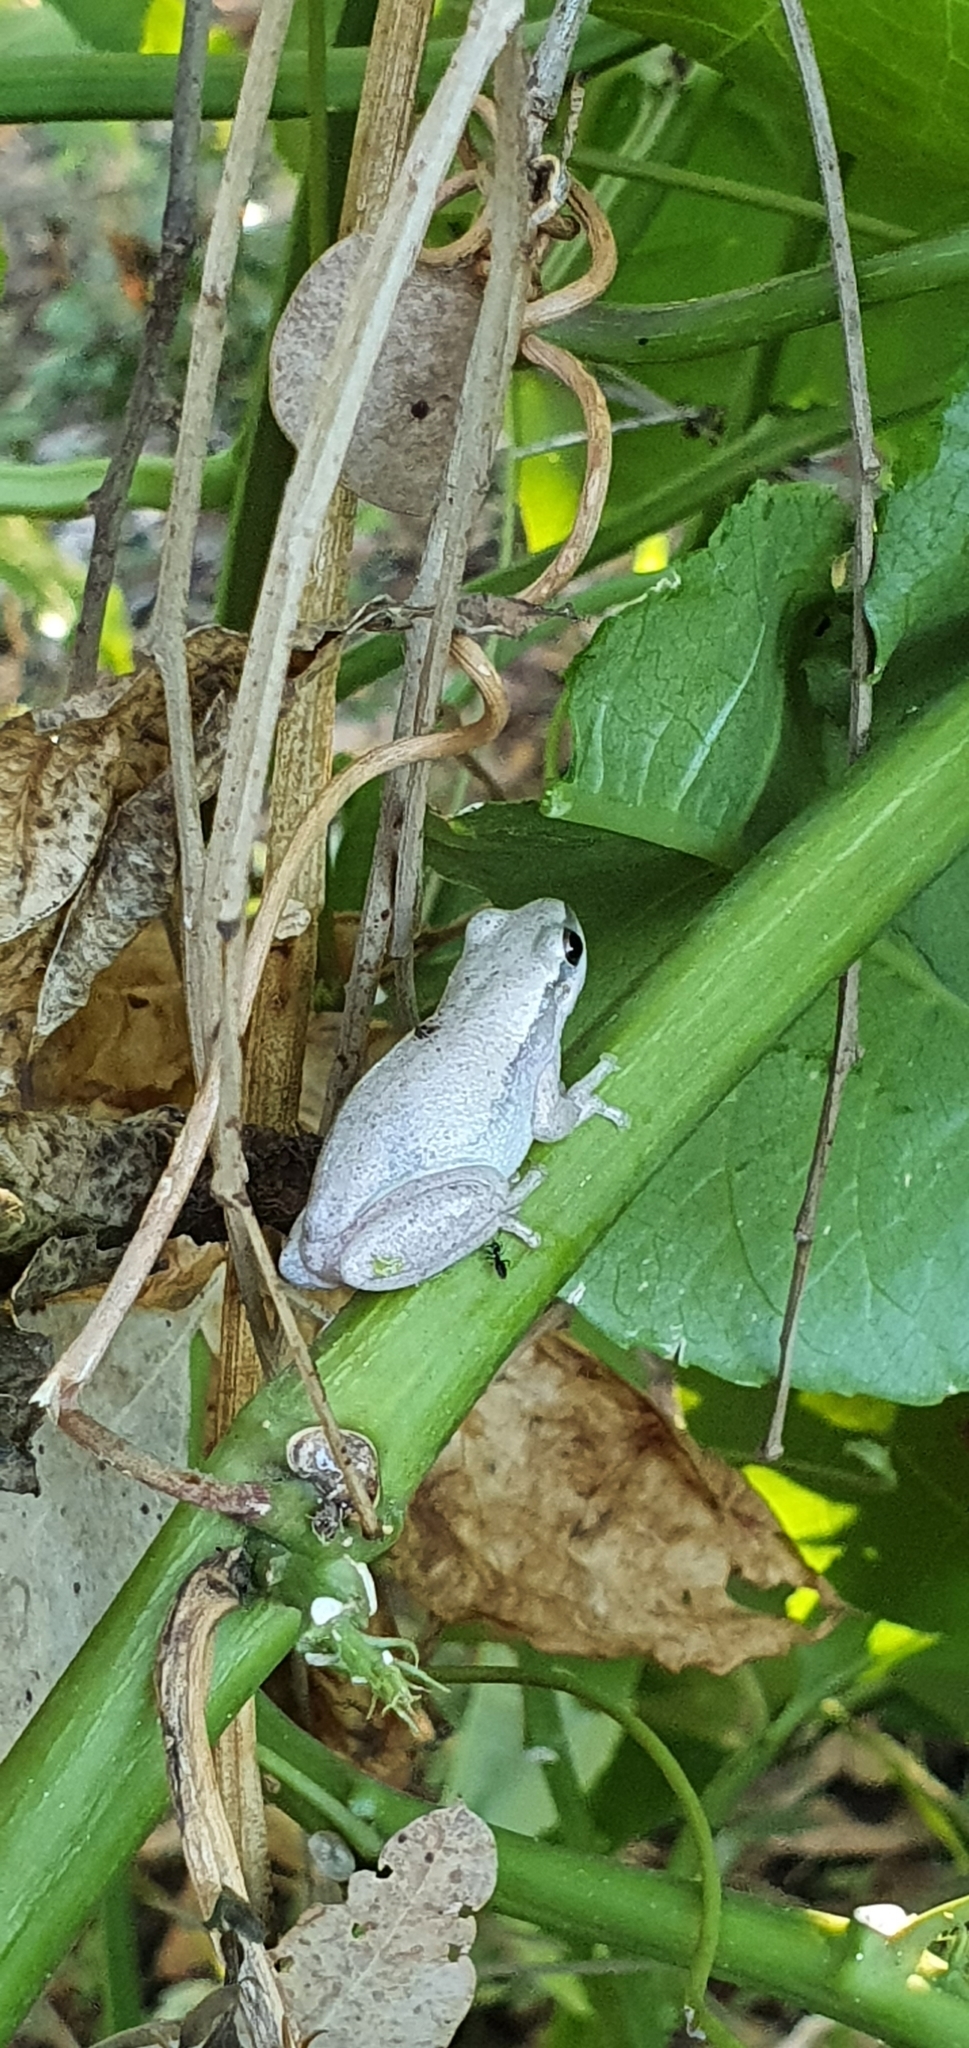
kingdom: Animalia
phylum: Chordata
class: Amphibia
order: Anura
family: Pelodryadidae
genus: Litoria
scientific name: Litoria rubella
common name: Desert tree frog
